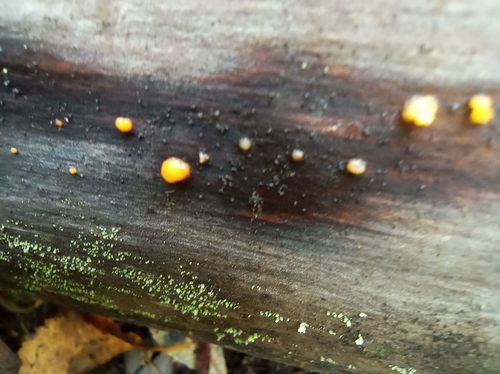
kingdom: Fungi
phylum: Basidiomycota
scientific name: Basidiomycota
